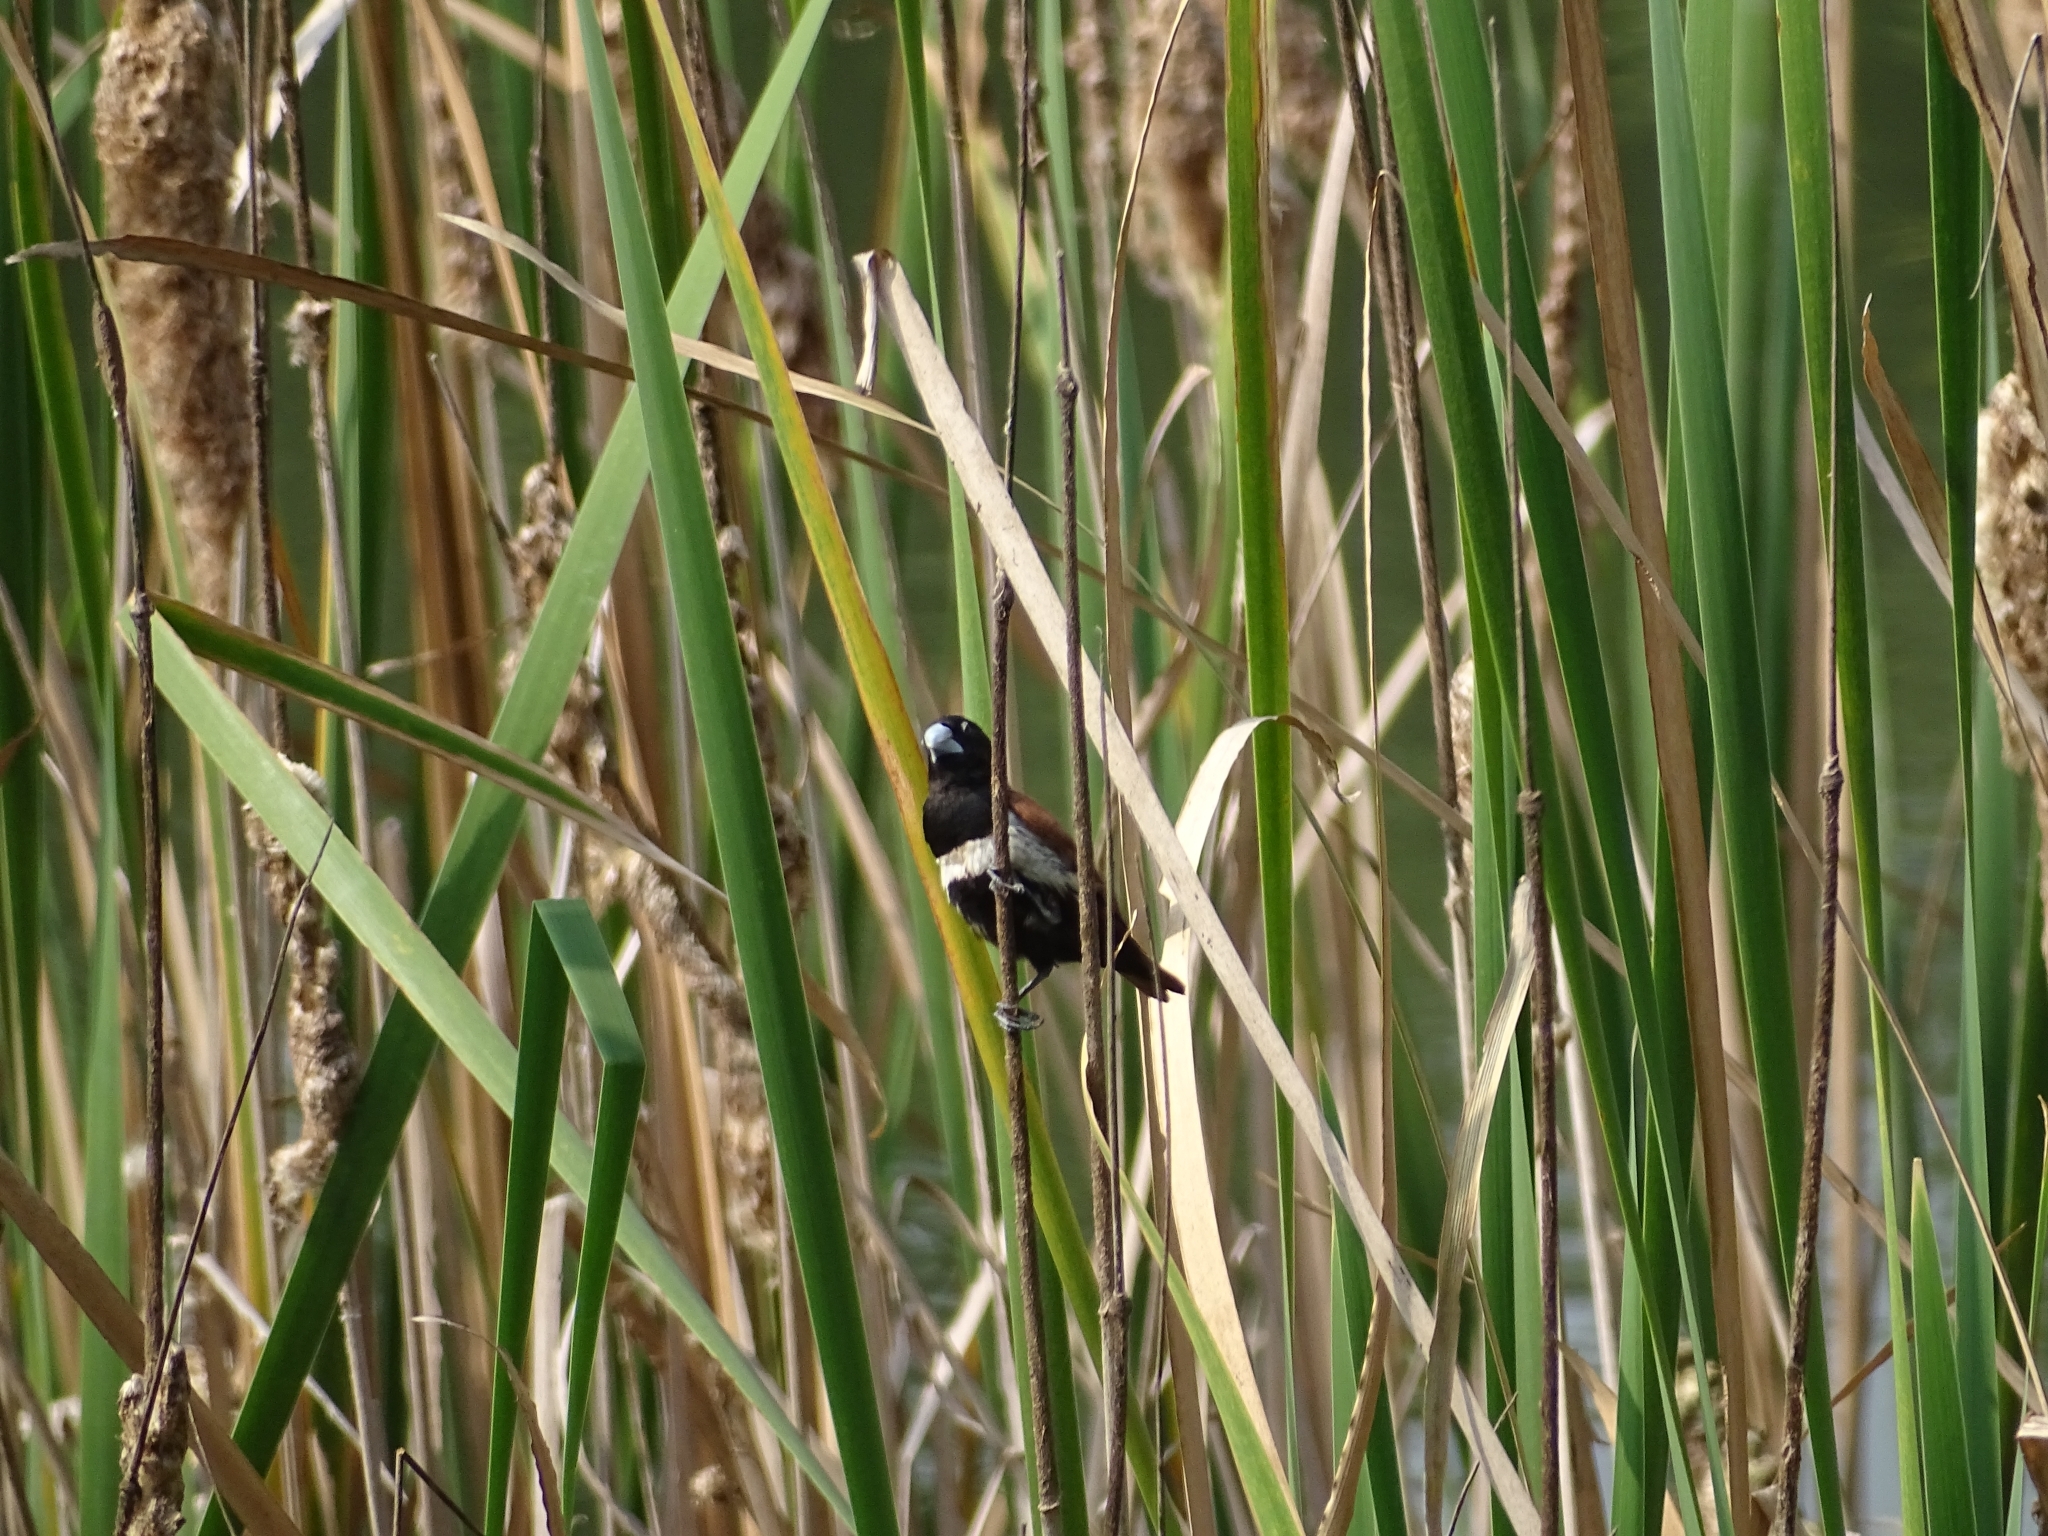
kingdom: Animalia
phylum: Chordata
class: Aves
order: Passeriformes
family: Estrildidae
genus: Lonchura
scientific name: Lonchura malacca
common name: Tricolored munia
